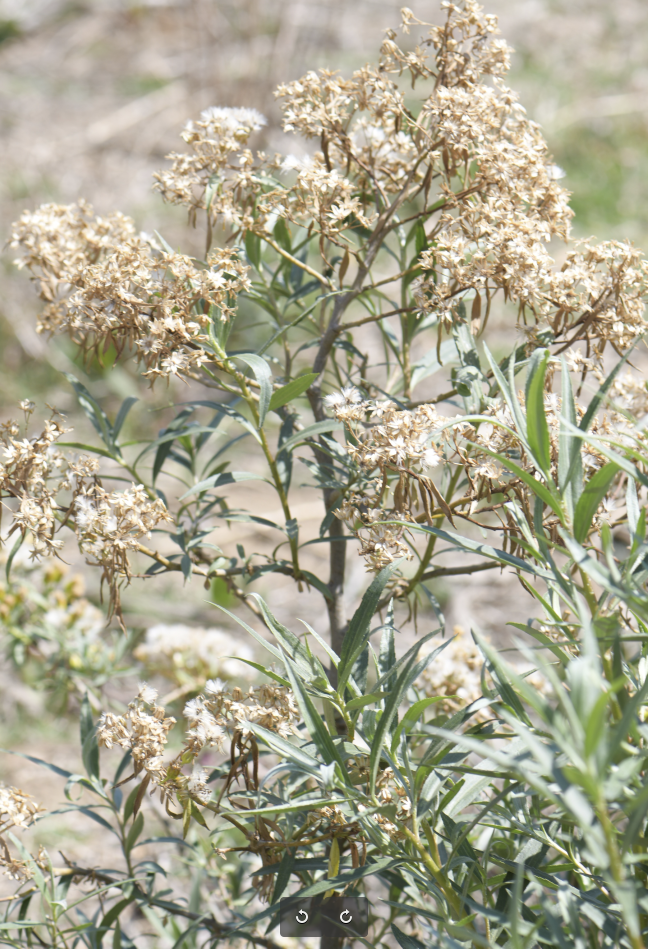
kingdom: Plantae
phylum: Tracheophyta
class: Magnoliopsida
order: Asterales
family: Asteraceae
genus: Barkleyanthus
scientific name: Barkleyanthus salicifolius
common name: Willow ragwort
